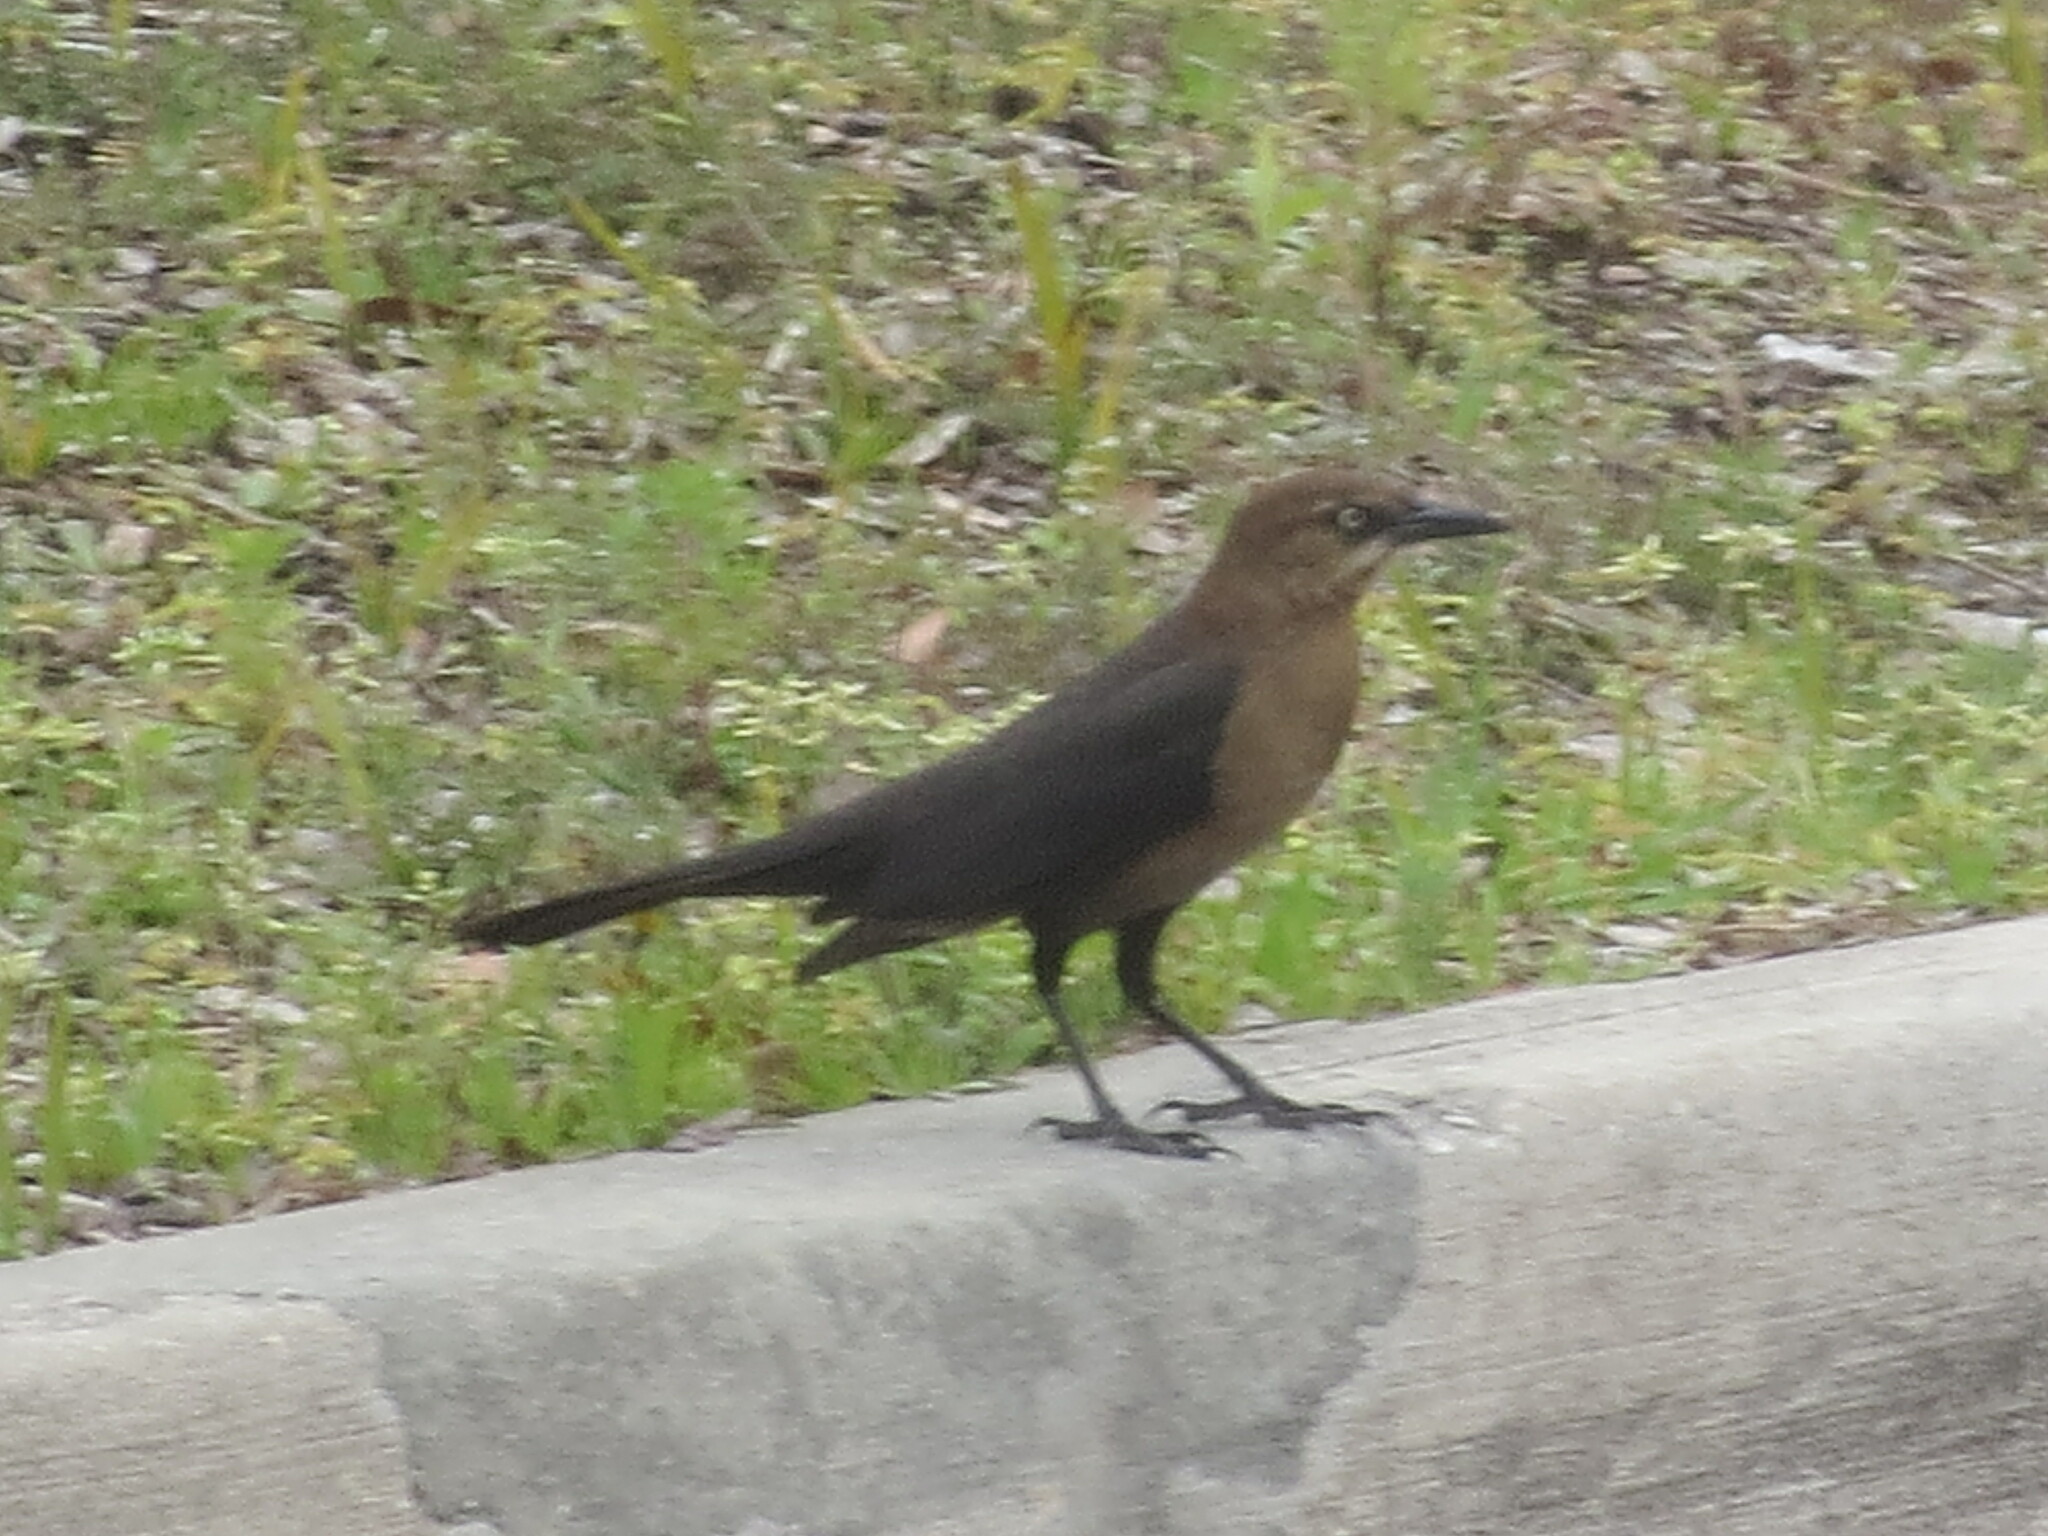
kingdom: Animalia
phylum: Chordata
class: Aves
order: Passeriformes
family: Icteridae
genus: Quiscalus
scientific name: Quiscalus major
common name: Boat-tailed grackle
